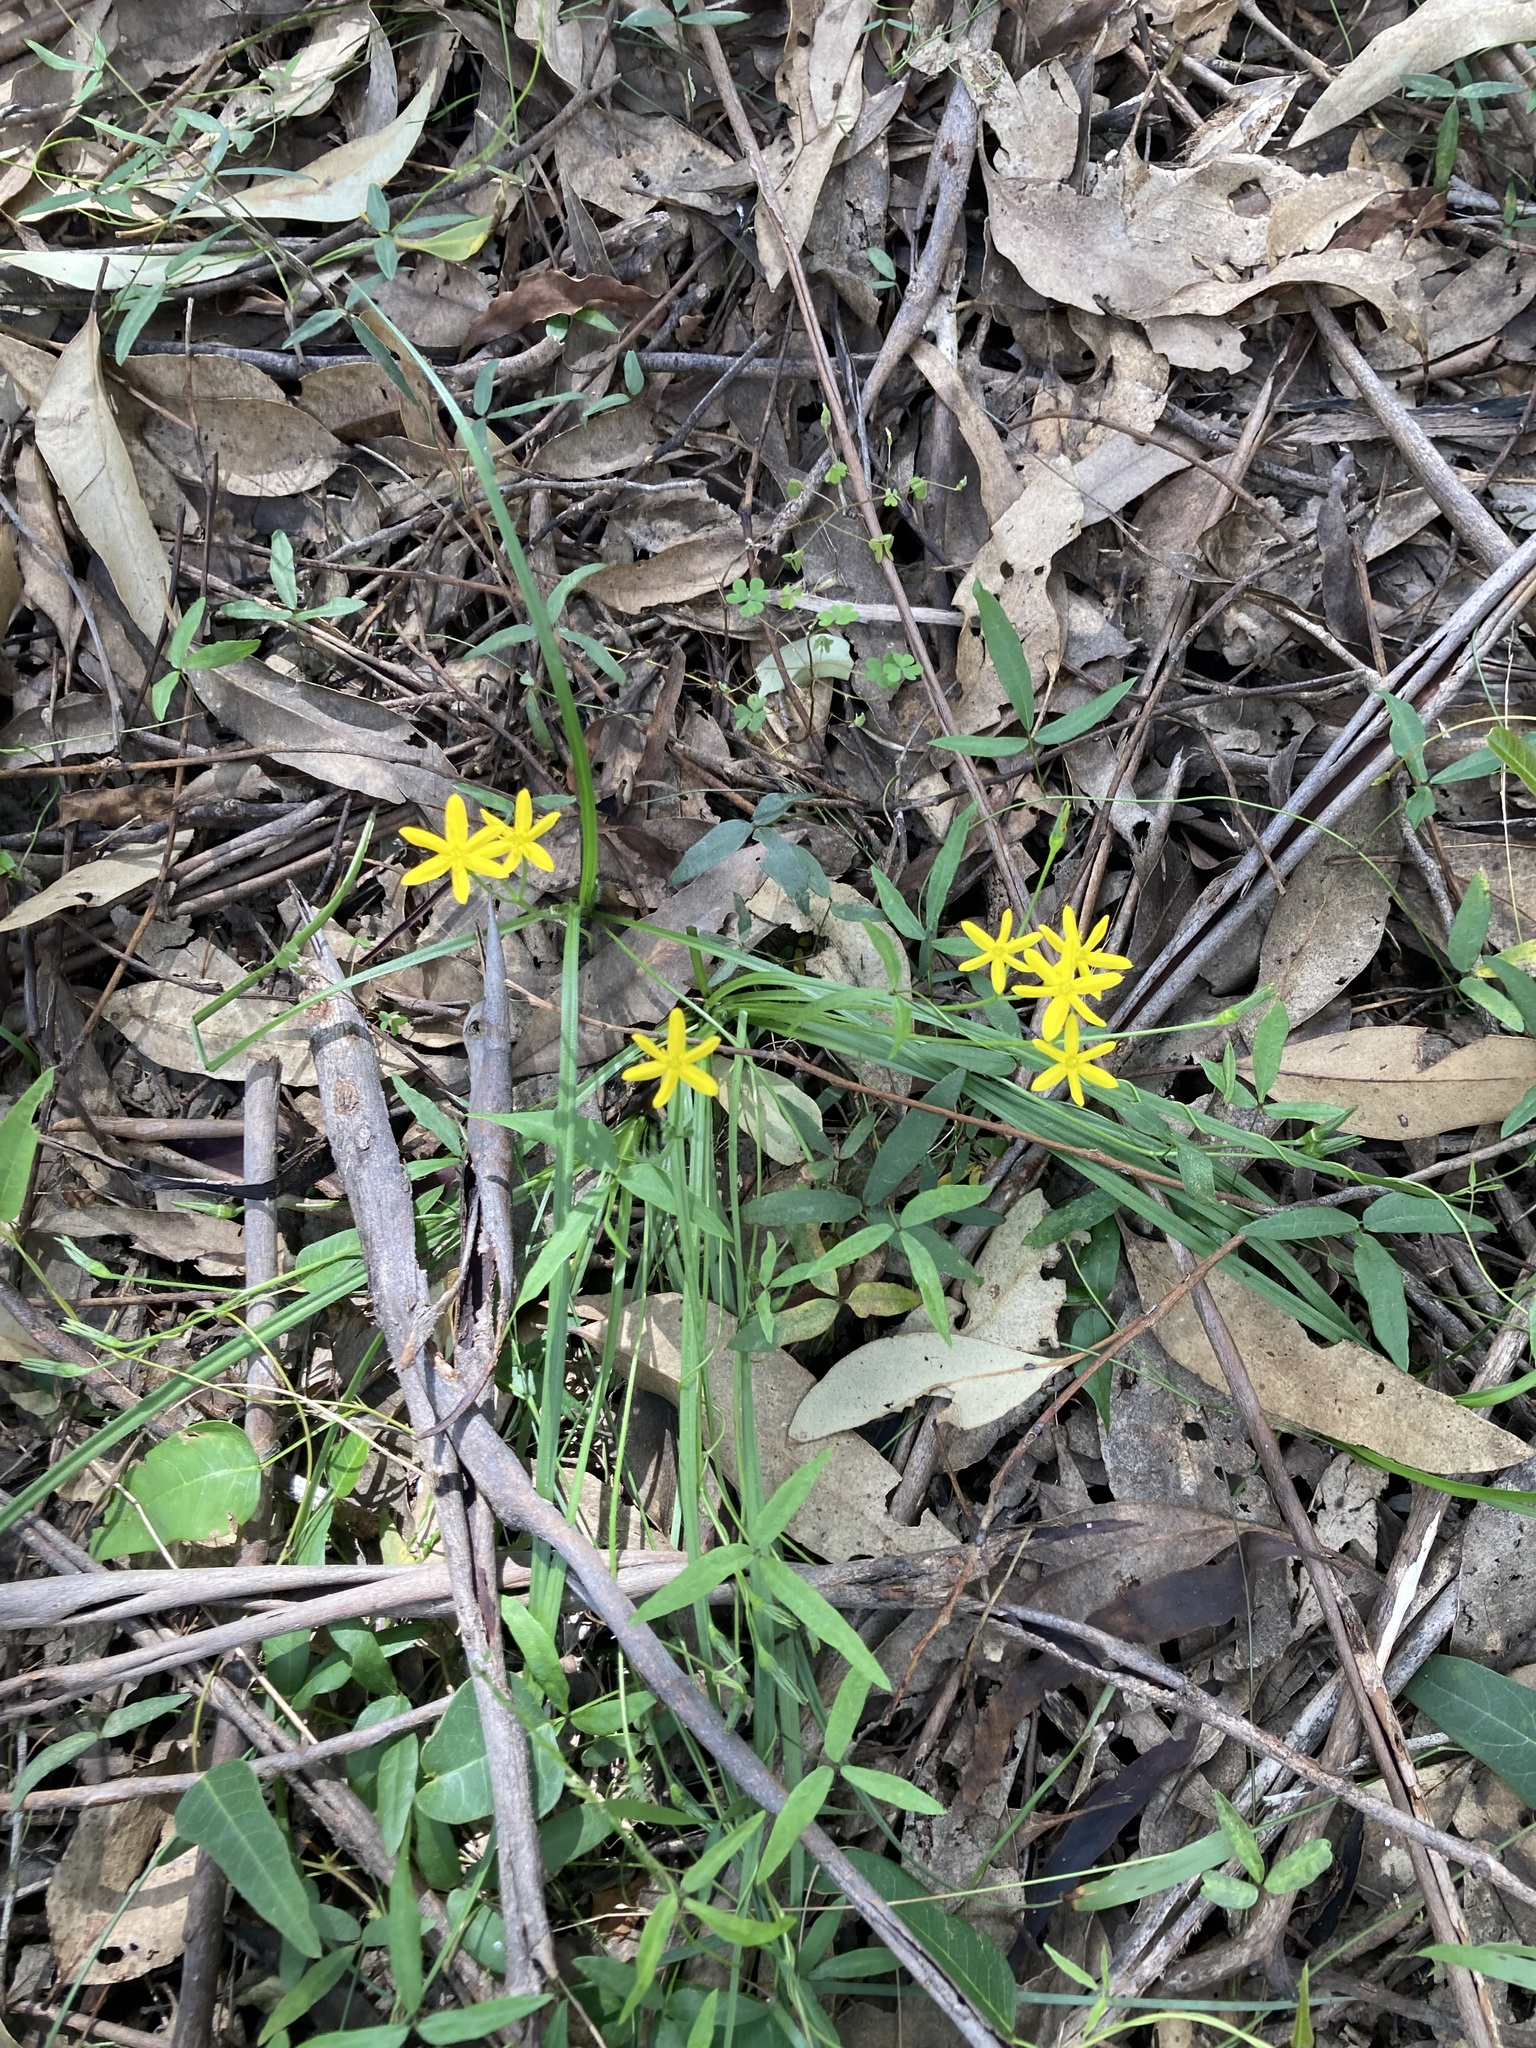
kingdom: Plantae
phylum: Tracheophyta
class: Liliopsida
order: Asparagales
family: Hypoxidaceae
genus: Hypoxis
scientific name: Hypoxis hygrometrica
